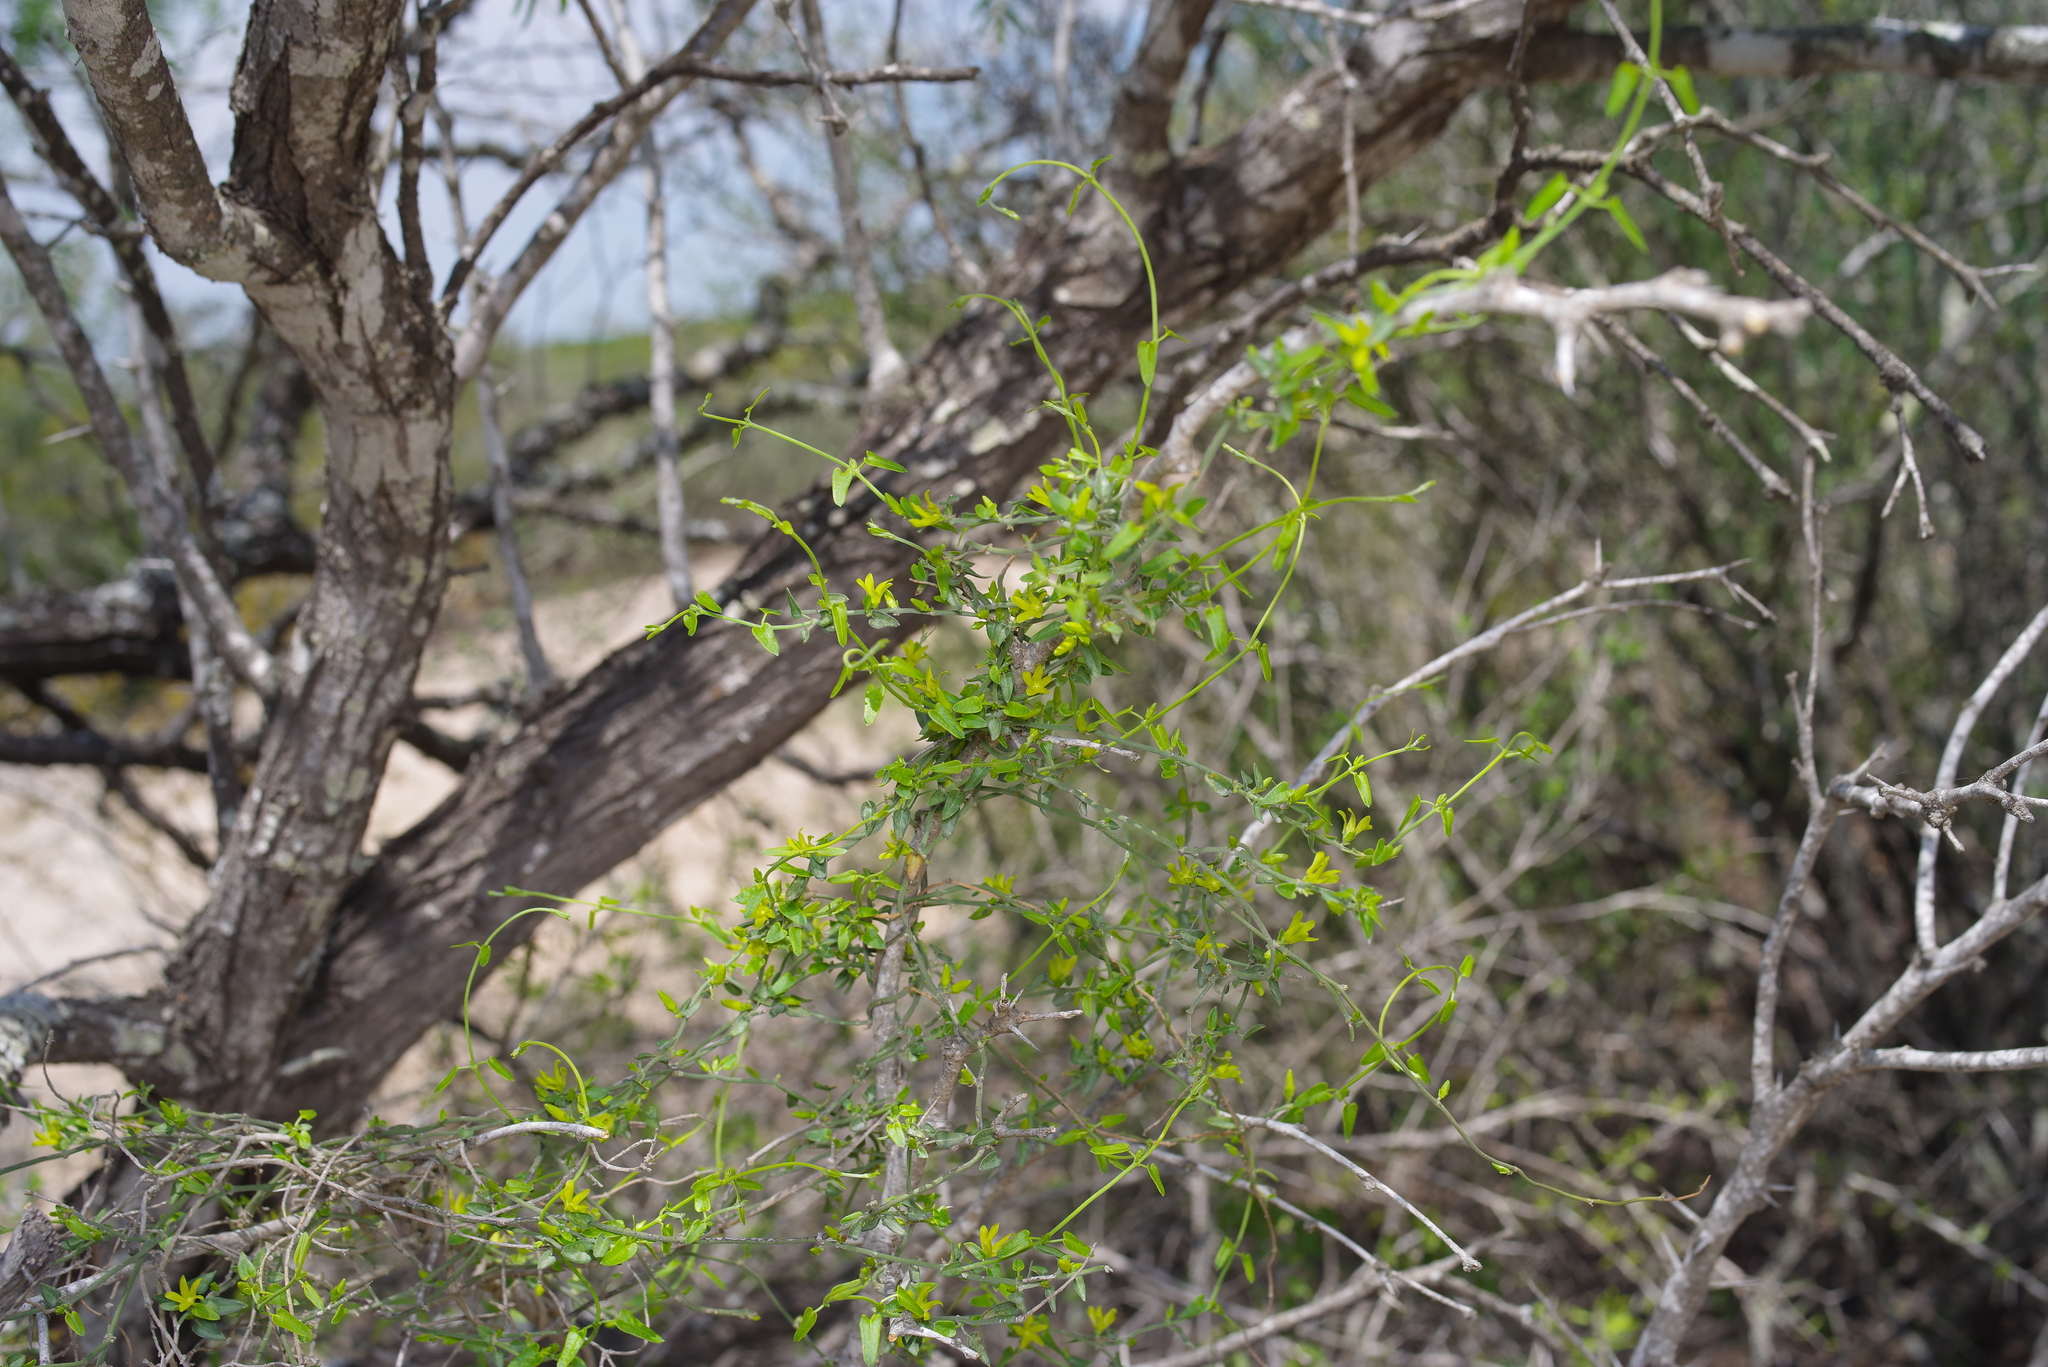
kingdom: Plantae
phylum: Tracheophyta
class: Magnoliopsida
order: Gentianales
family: Apocynaceae
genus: Matelea
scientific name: Matelea sagittifolia
